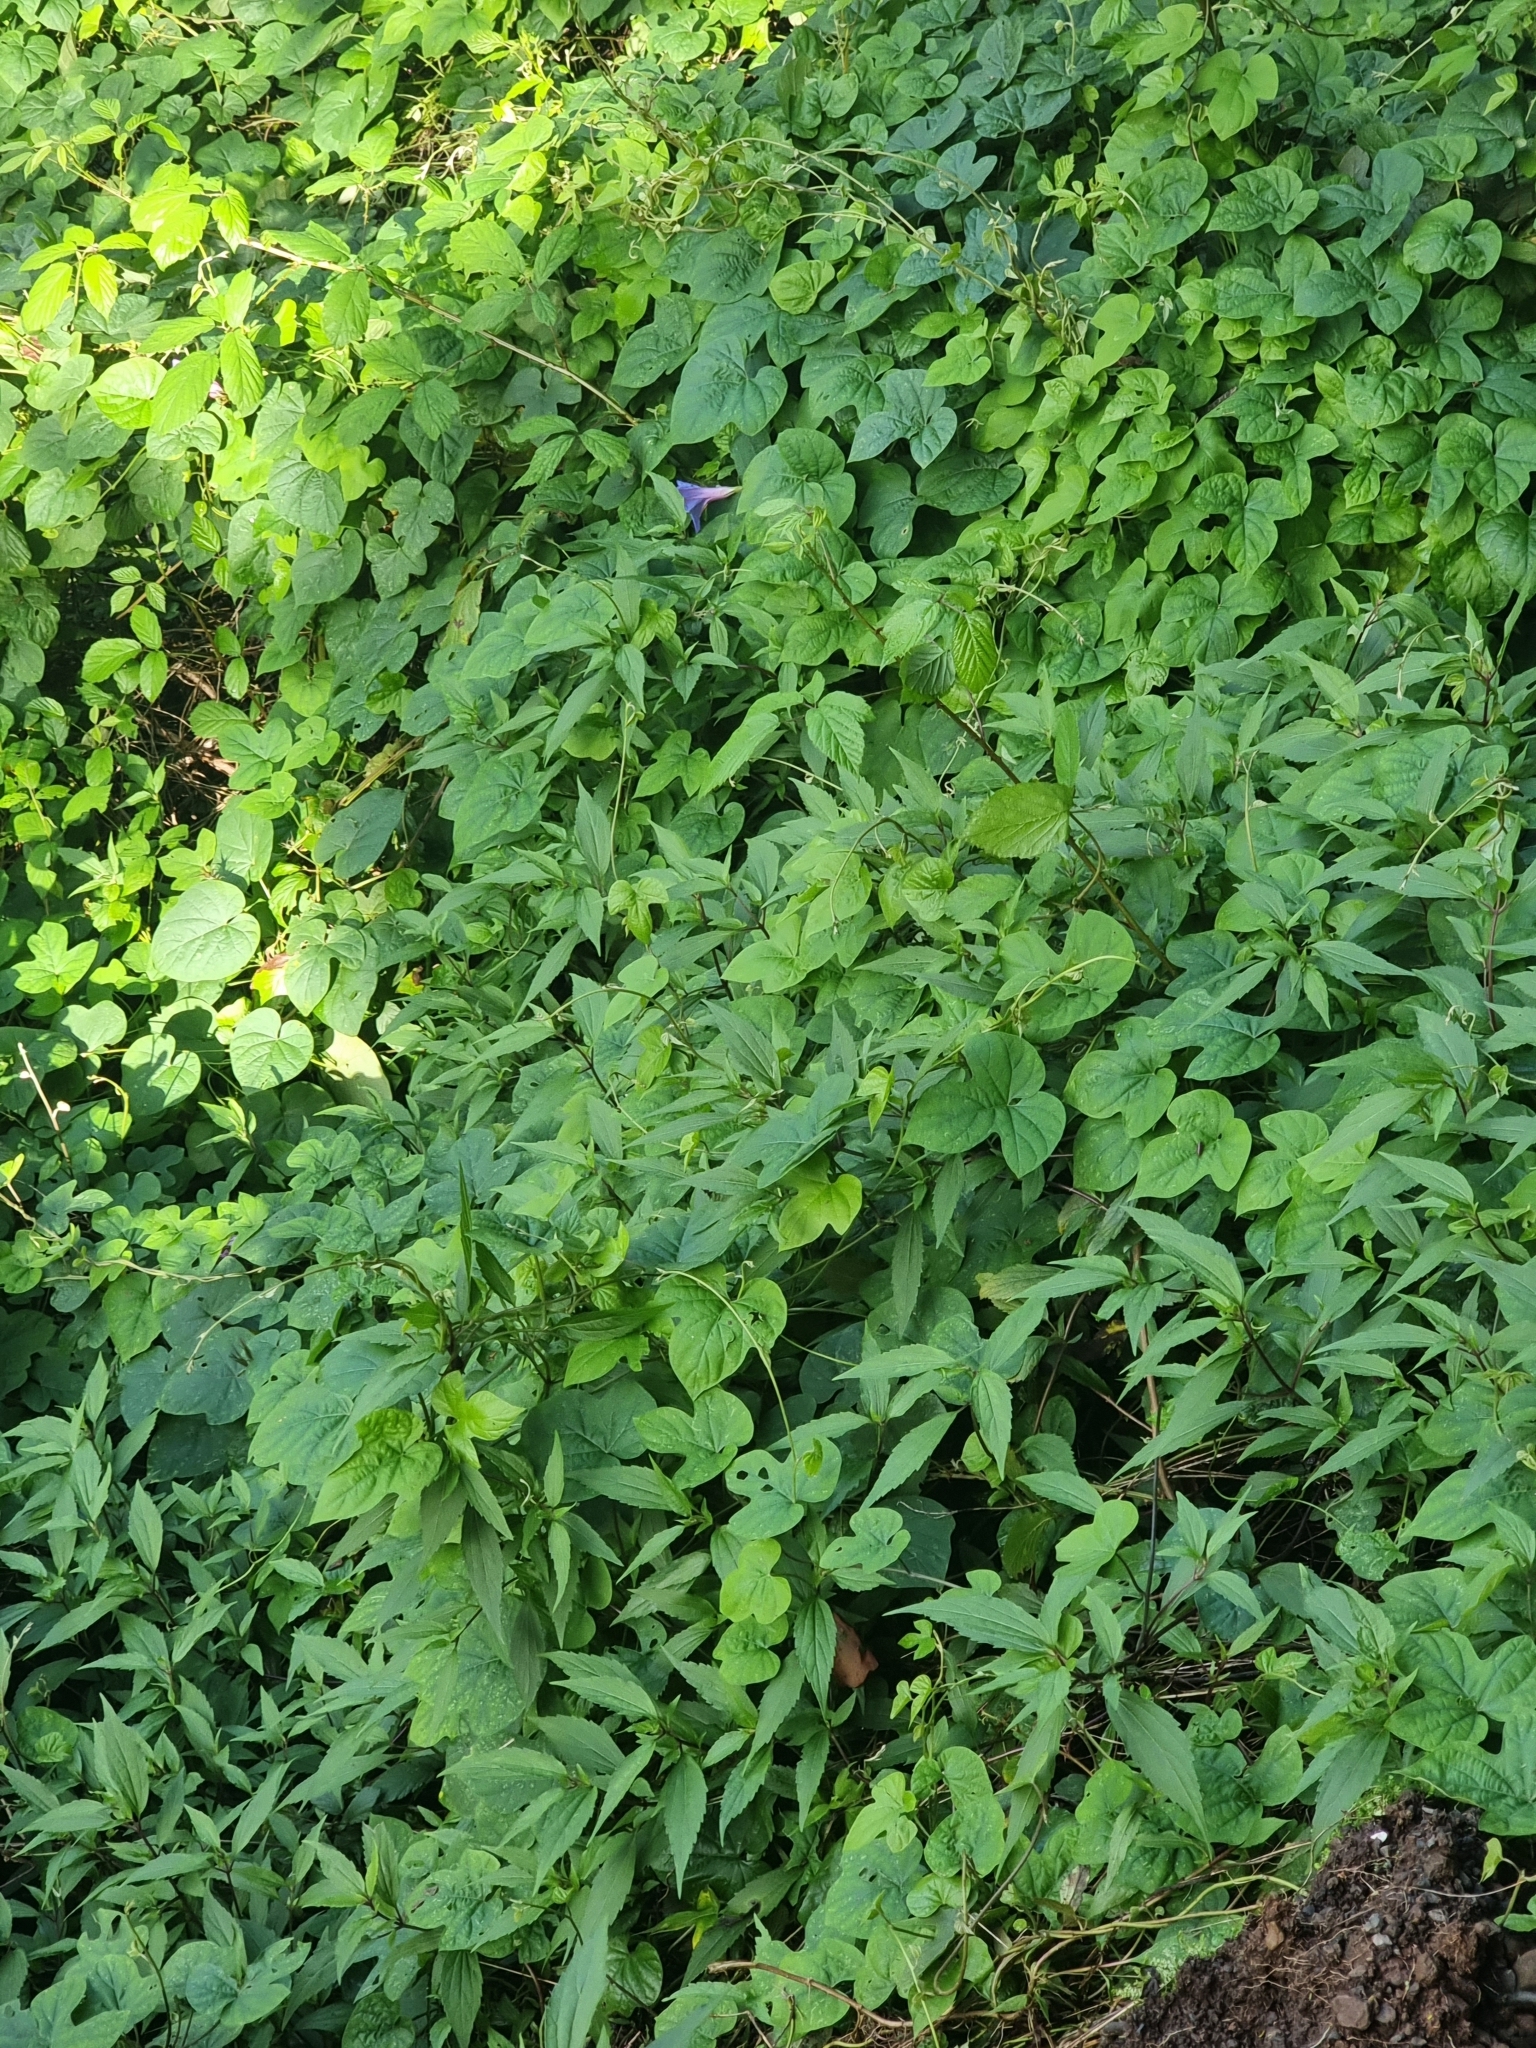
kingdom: Plantae
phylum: Tracheophyta
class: Magnoliopsida
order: Solanales
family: Convolvulaceae
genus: Ipomoea
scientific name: Ipomoea indica
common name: Blue dawnflower
